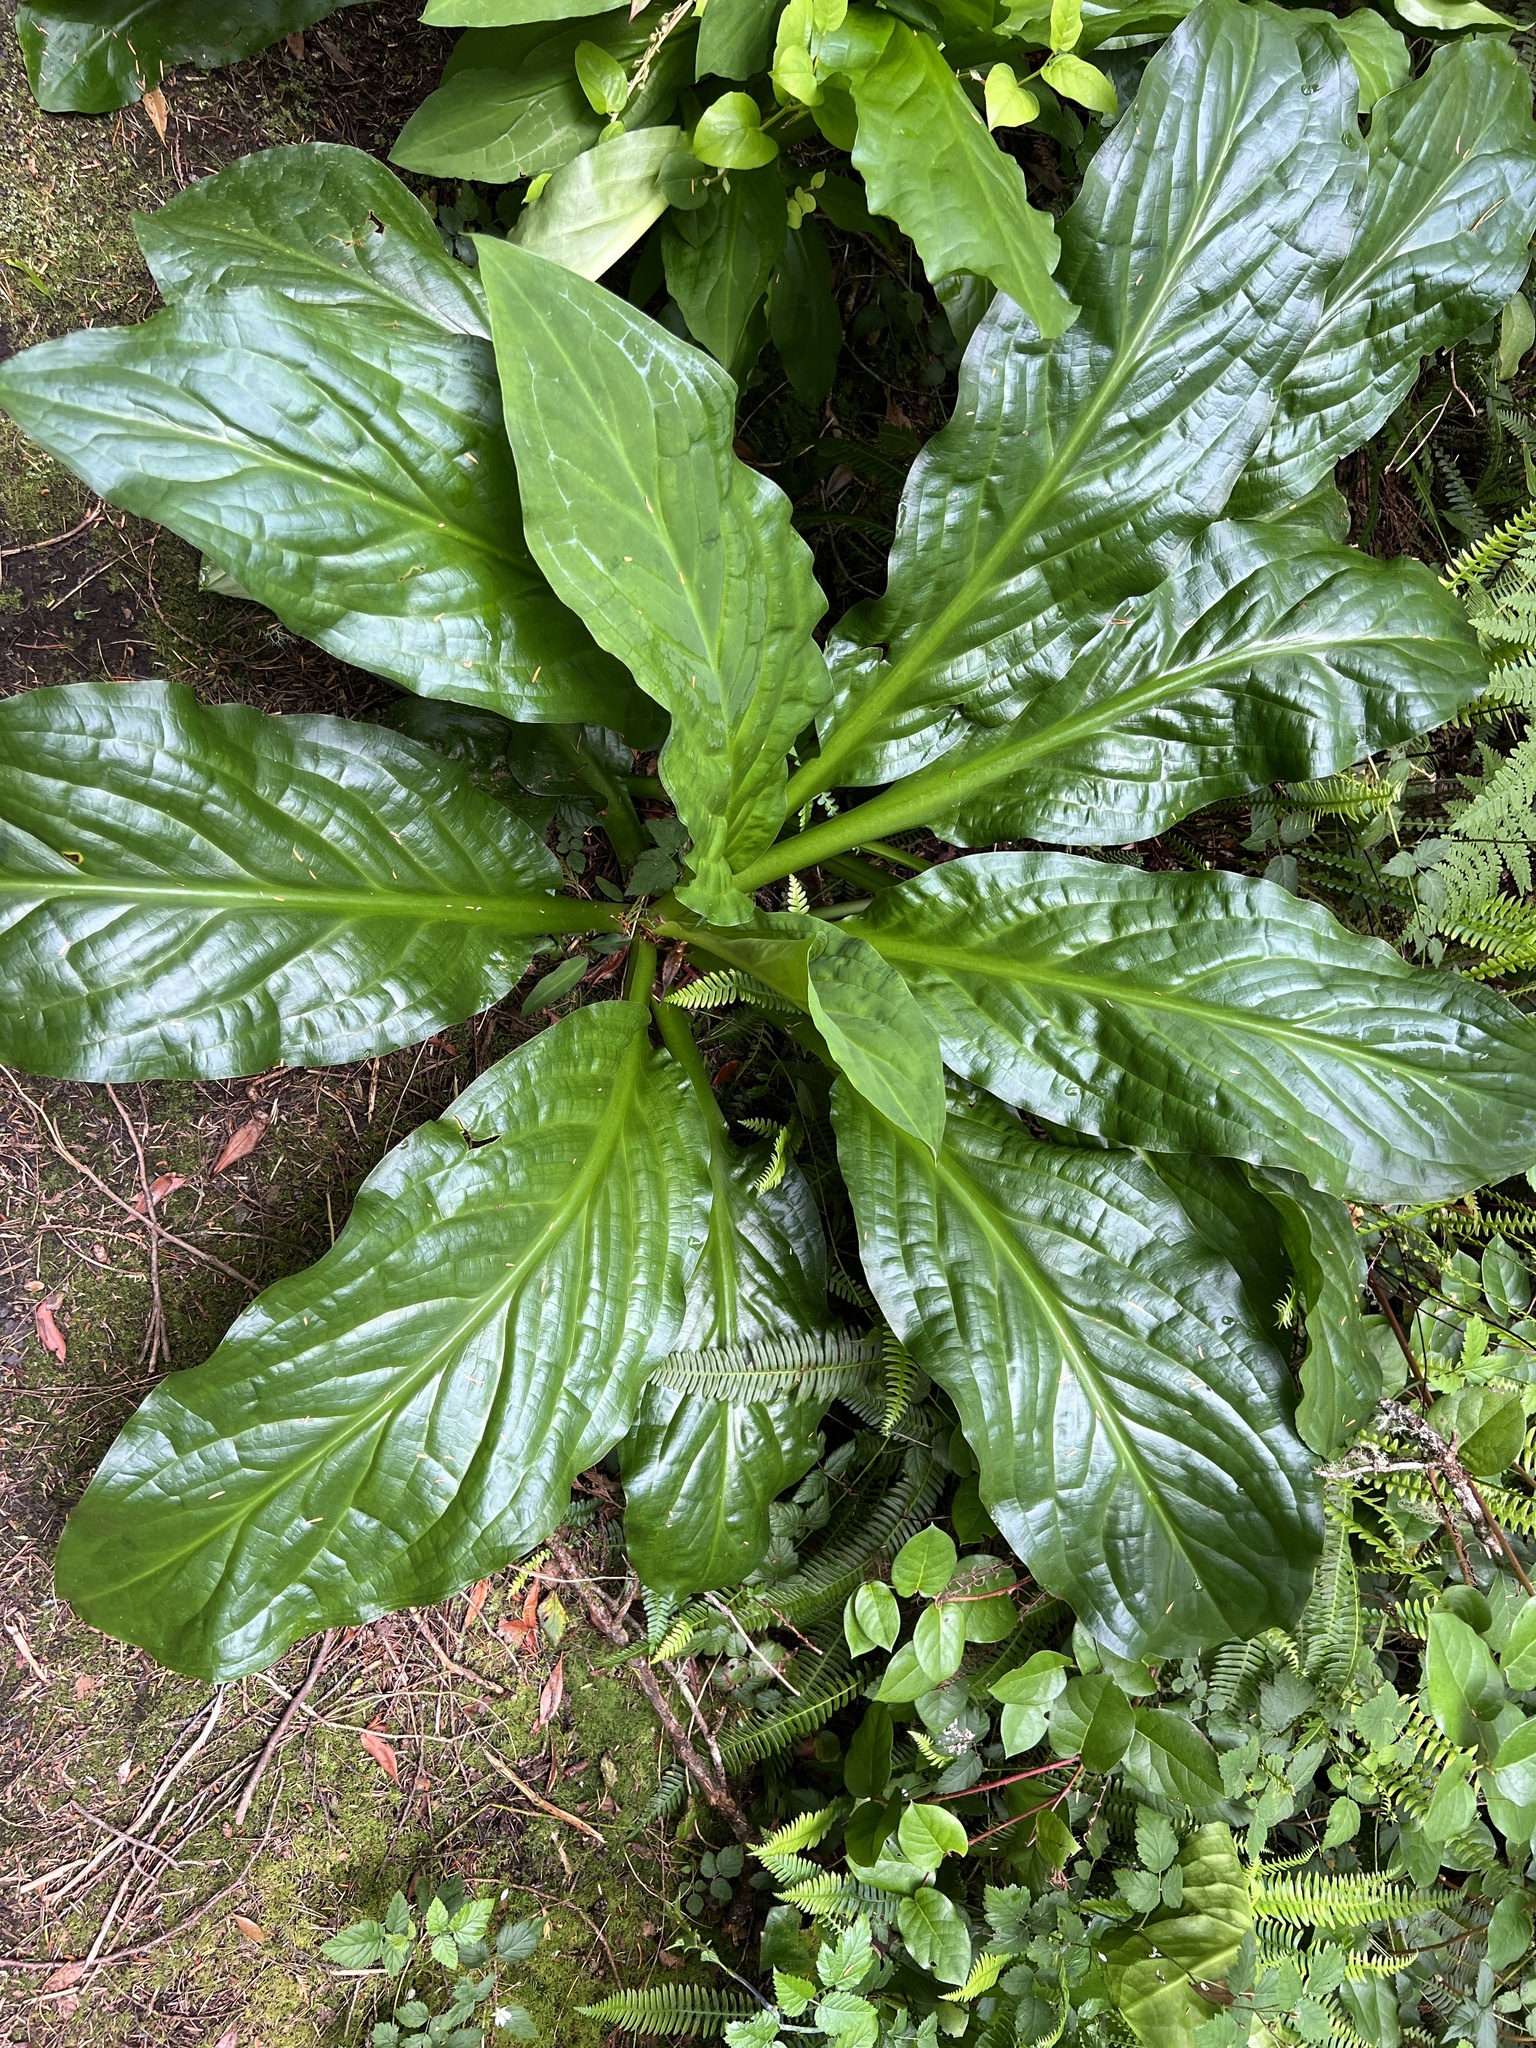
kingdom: Plantae
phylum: Tracheophyta
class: Liliopsida
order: Alismatales
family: Araceae
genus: Lysichiton
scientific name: Lysichiton americanus
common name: American skunk cabbage
